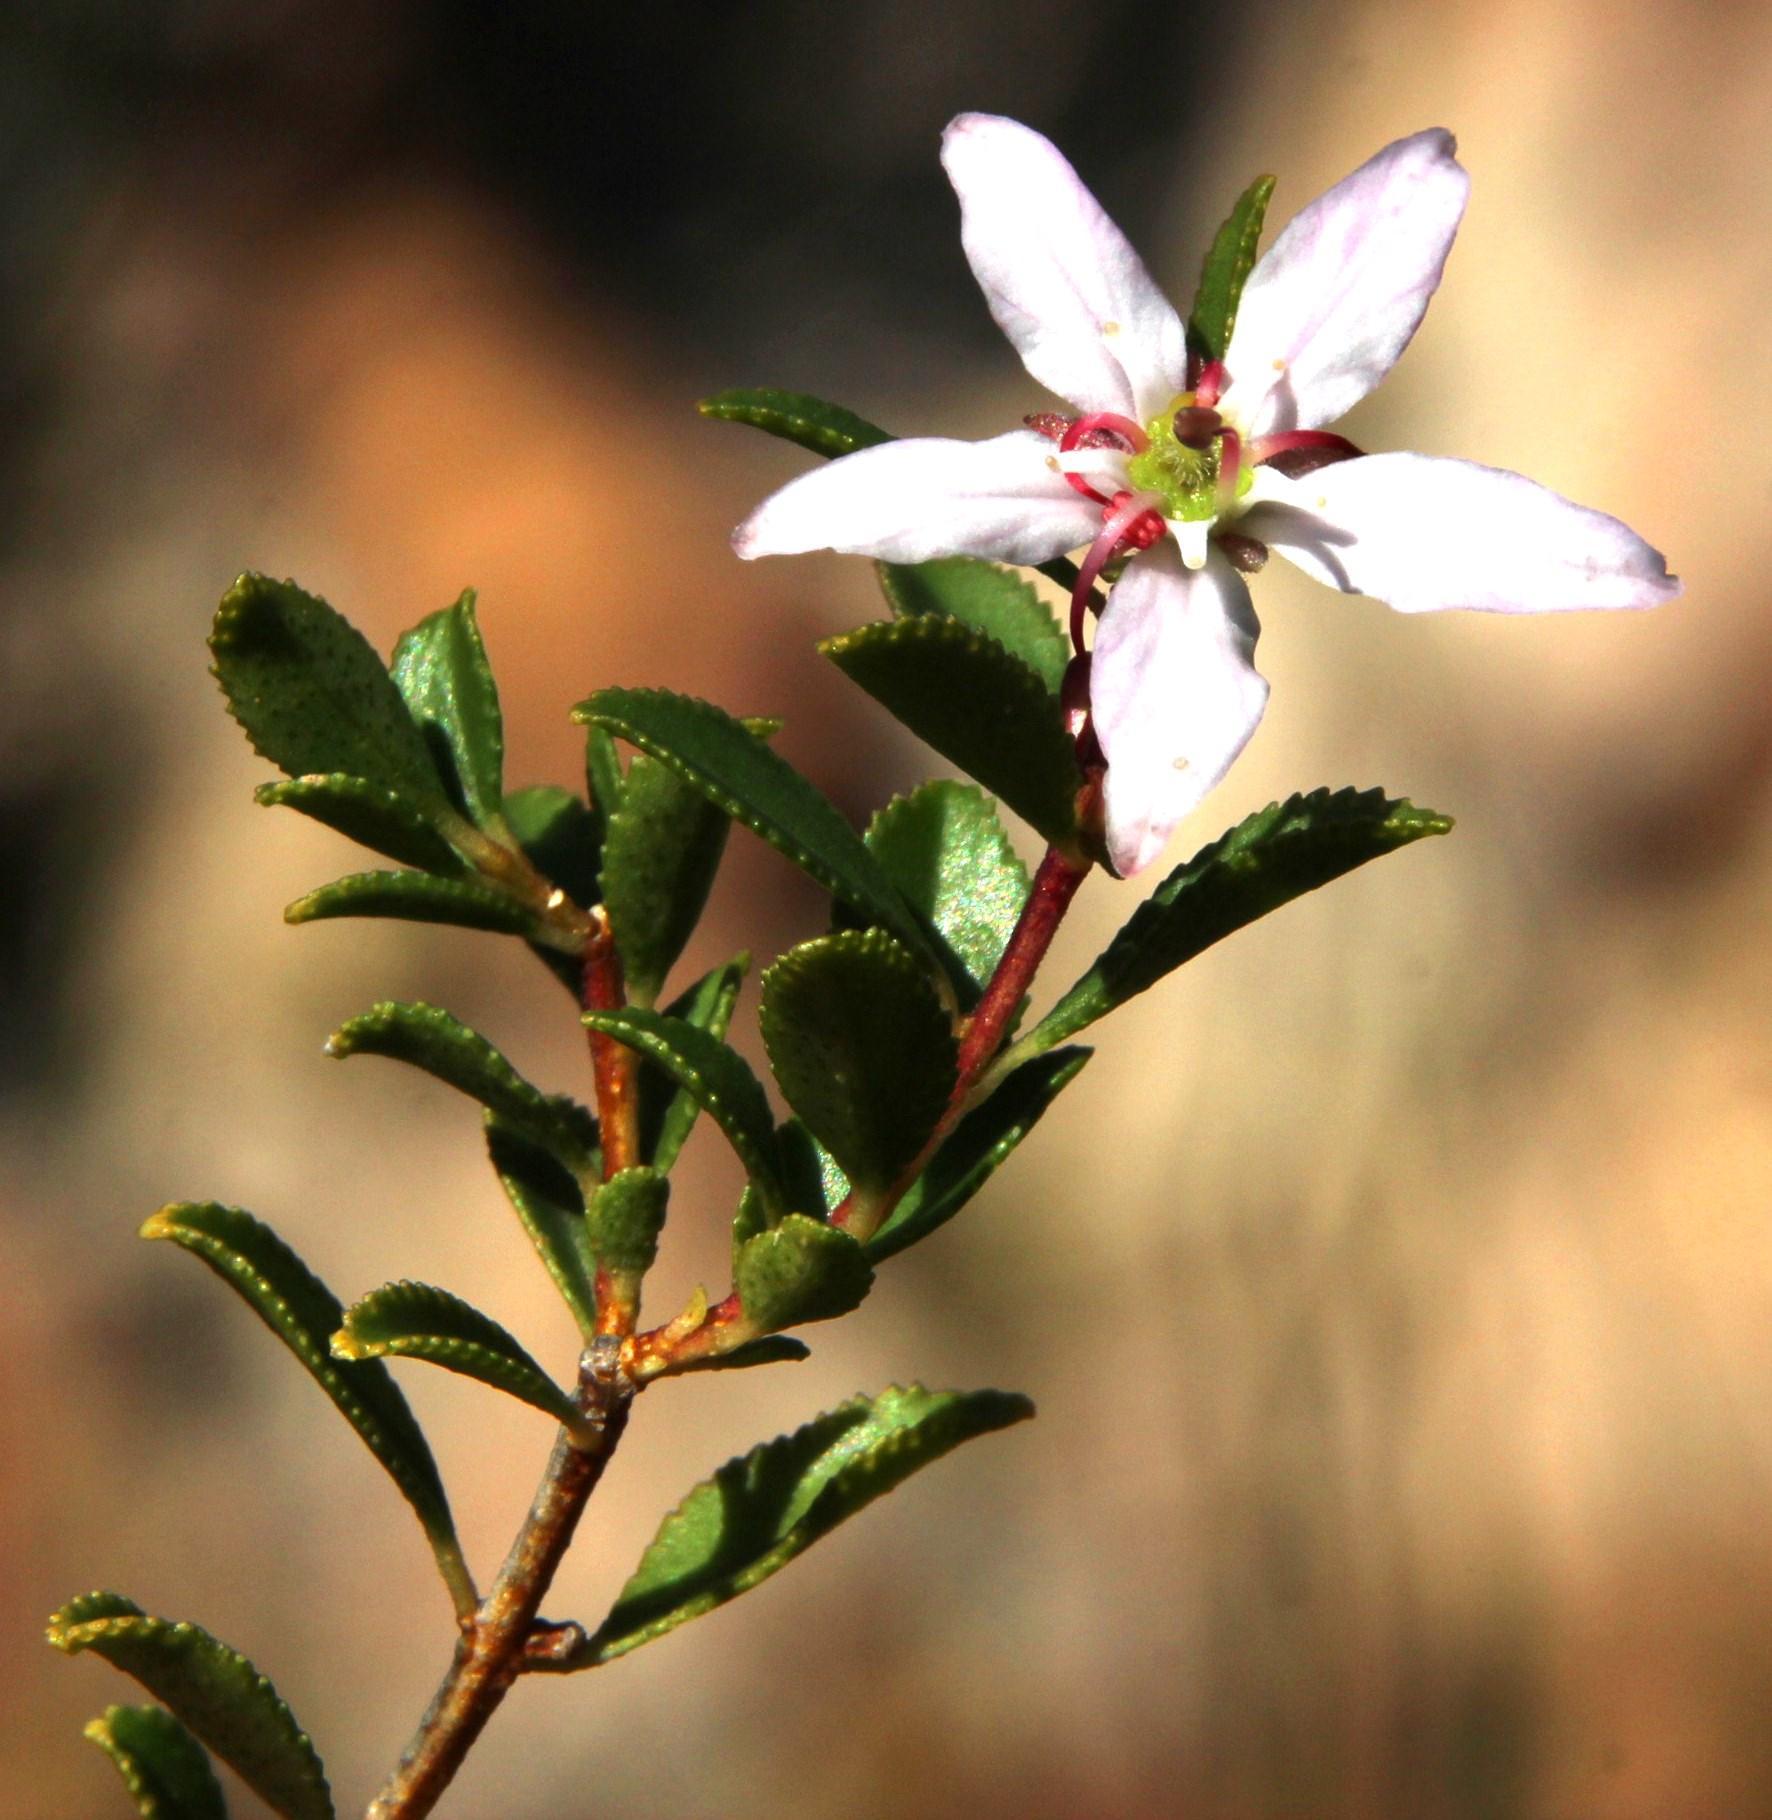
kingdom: Plantae
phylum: Tracheophyta
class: Magnoliopsida
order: Sapindales
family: Rutaceae
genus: Agathosma
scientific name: Agathosma betulina
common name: Mountain buchu
